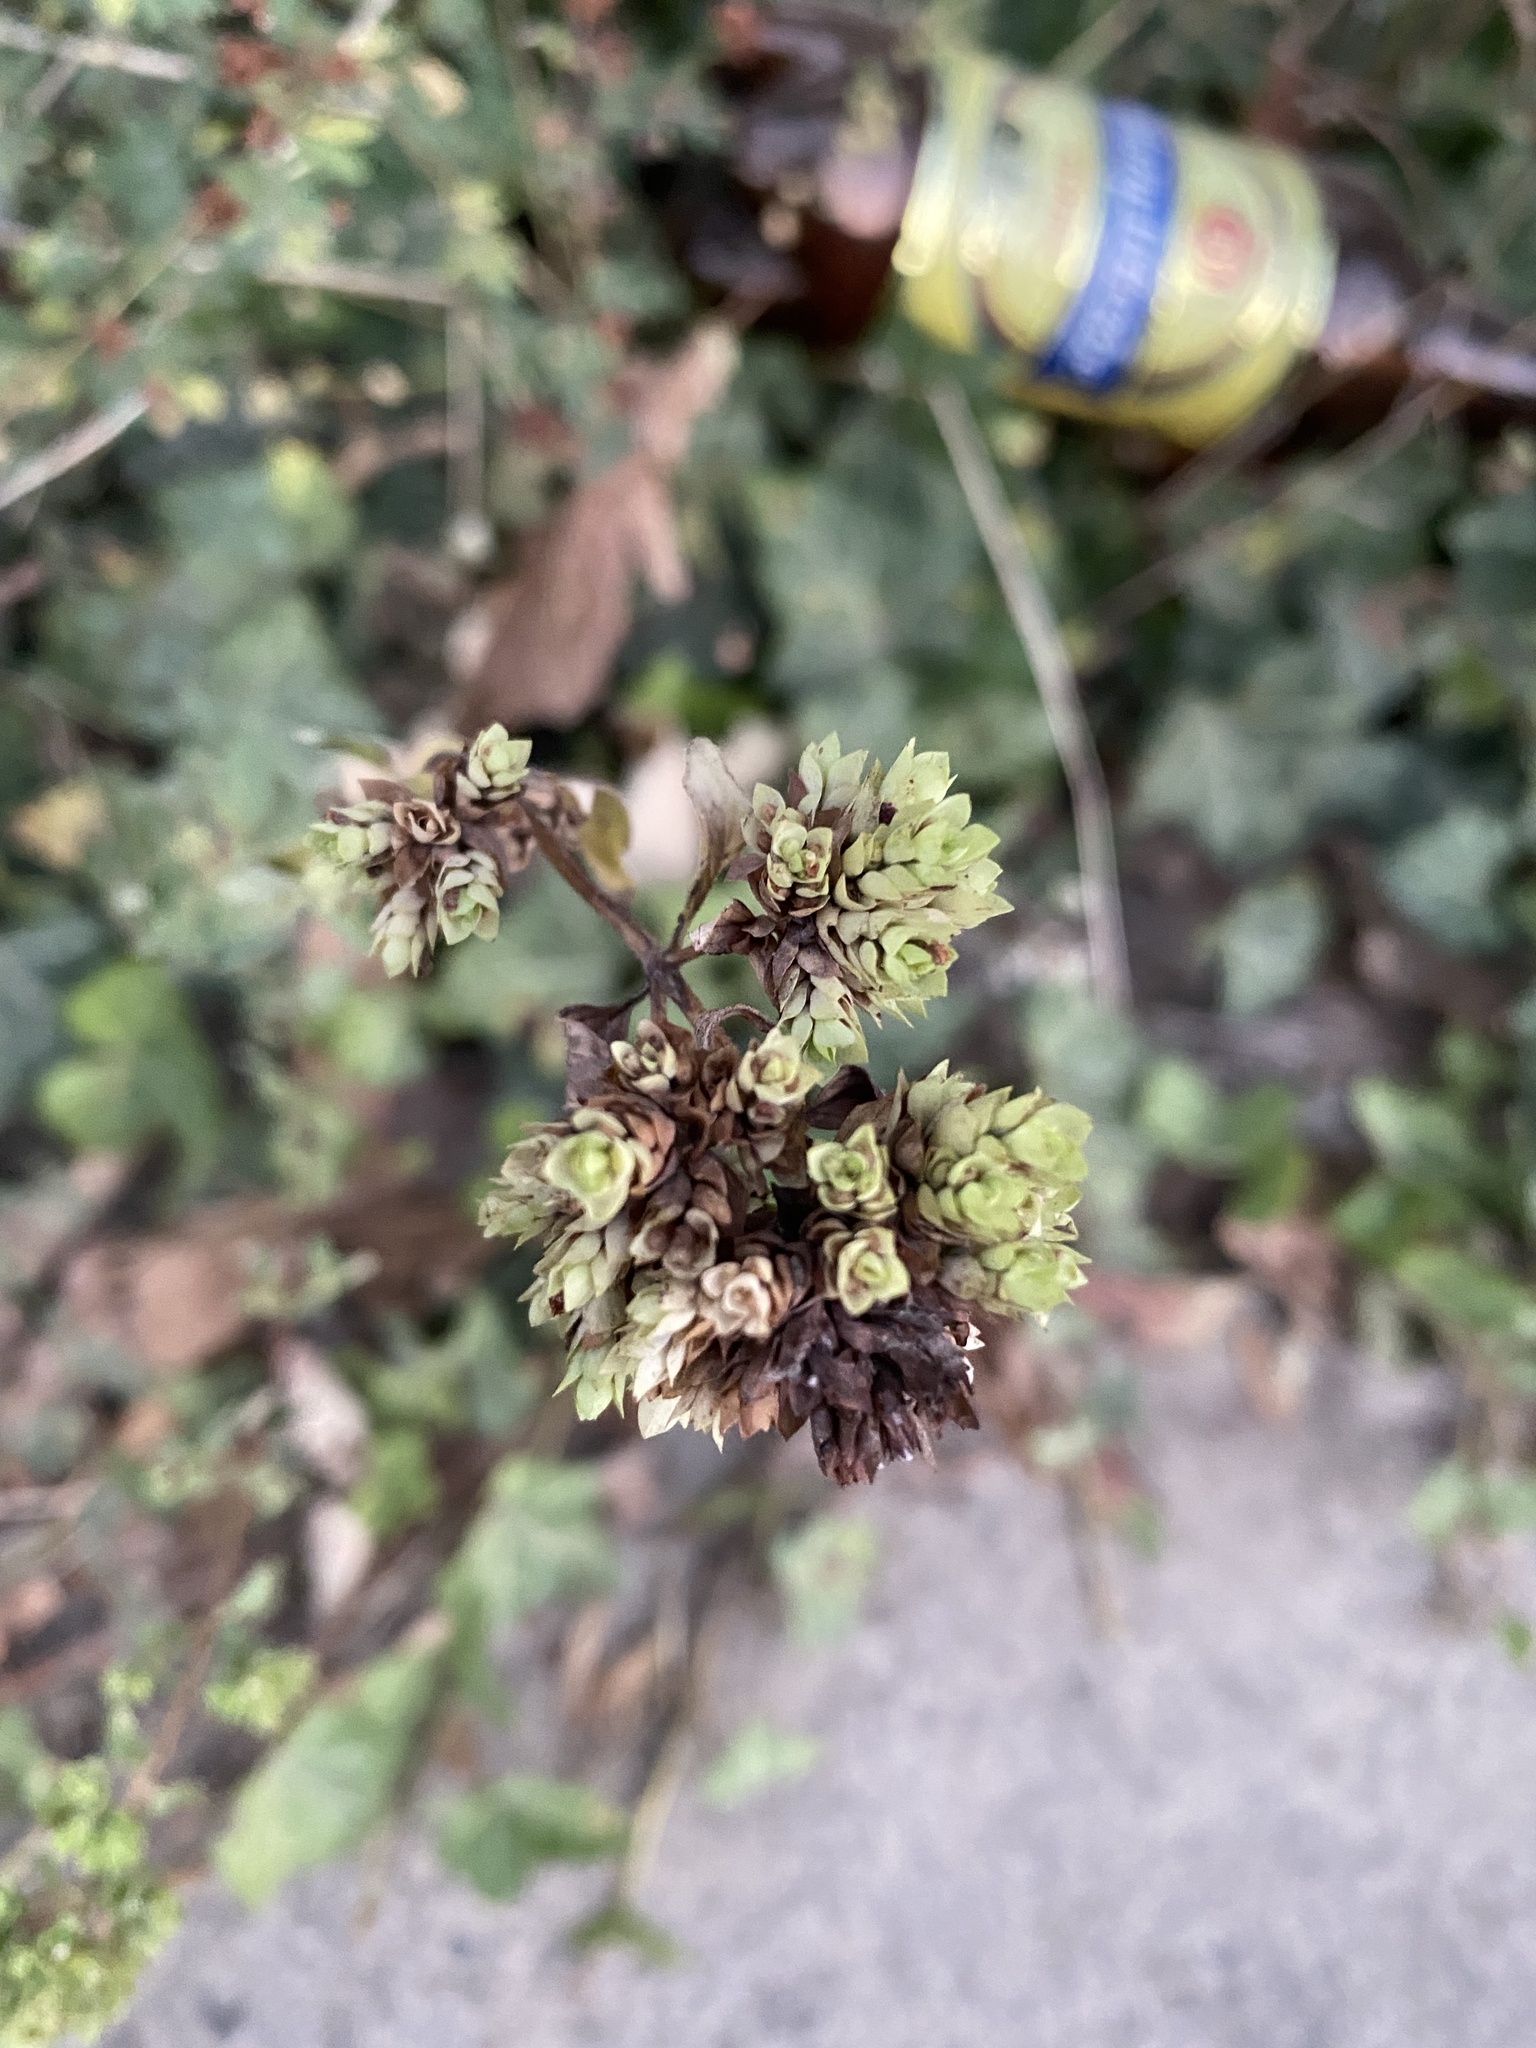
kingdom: Plantae
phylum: Tracheophyta
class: Magnoliopsida
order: Lamiales
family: Lamiaceae
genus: Origanum
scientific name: Origanum vulgare
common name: Wild marjoram
